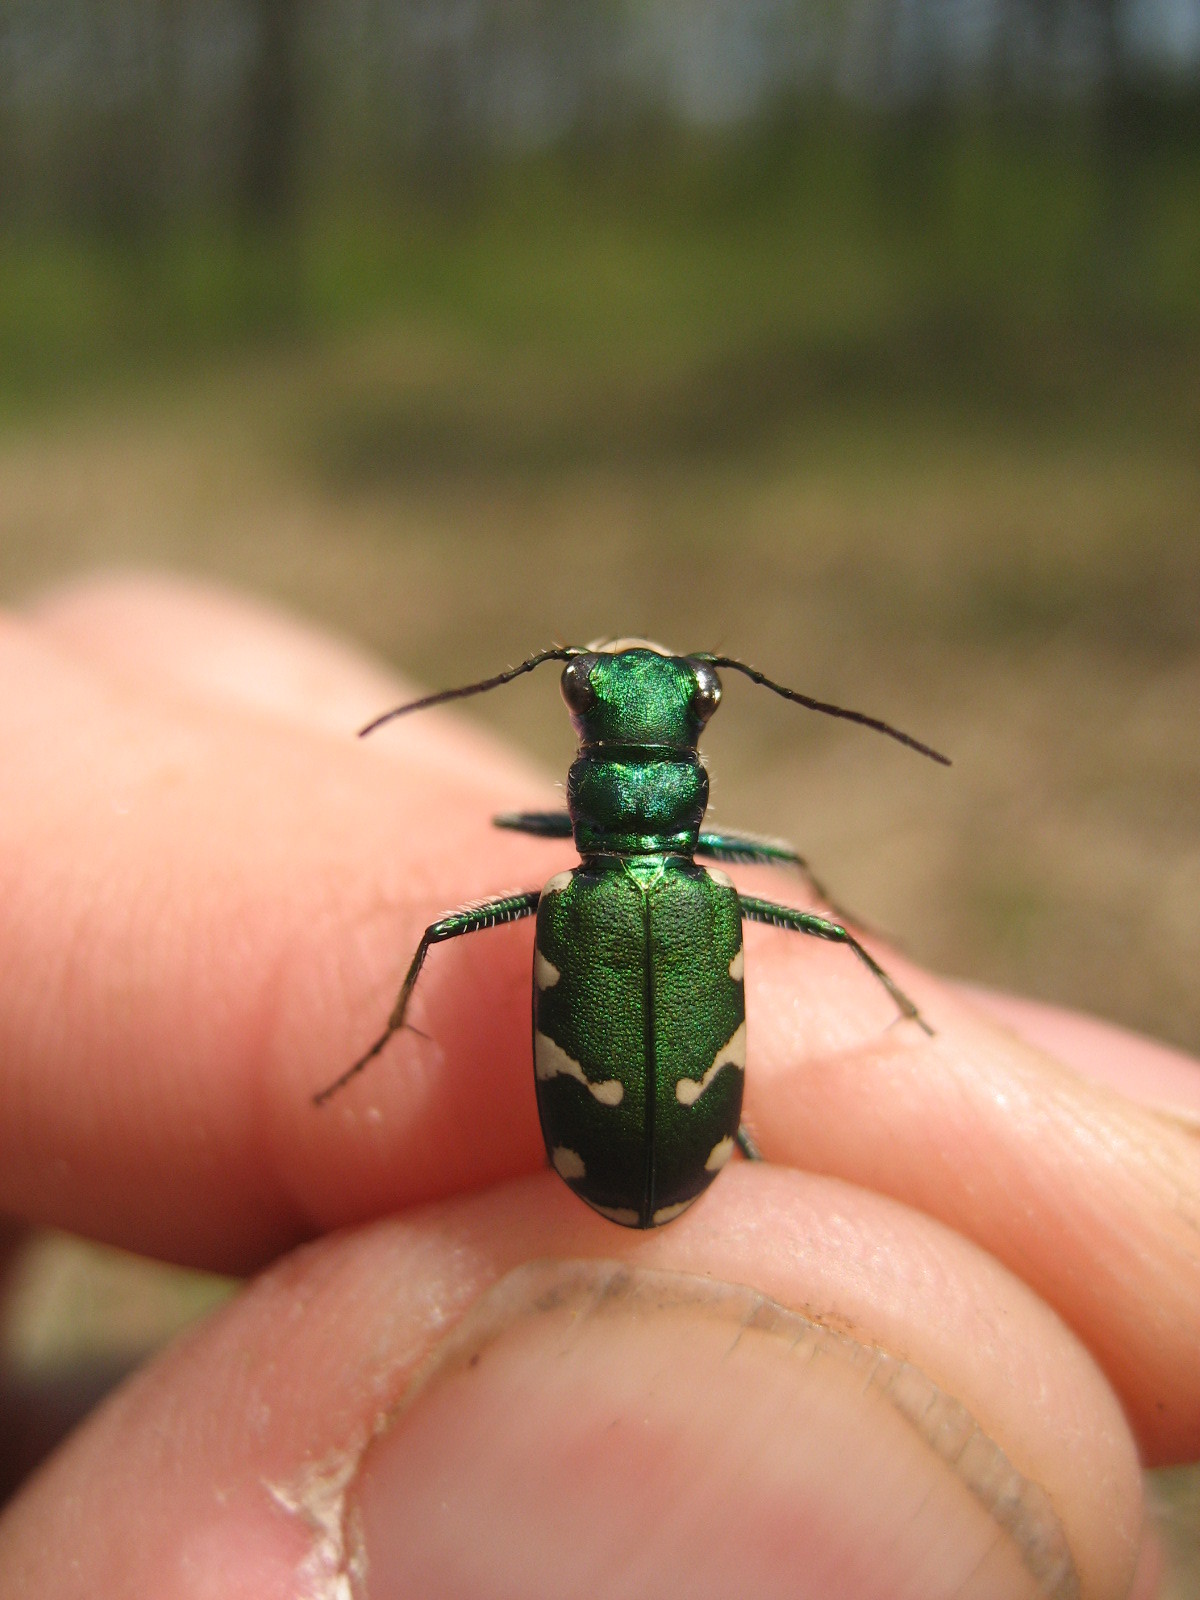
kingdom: Animalia
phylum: Arthropoda
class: Insecta
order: Coleoptera
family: Carabidae
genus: Cicindela
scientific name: Cicindela patruela
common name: Northern barrens tiger beetle
